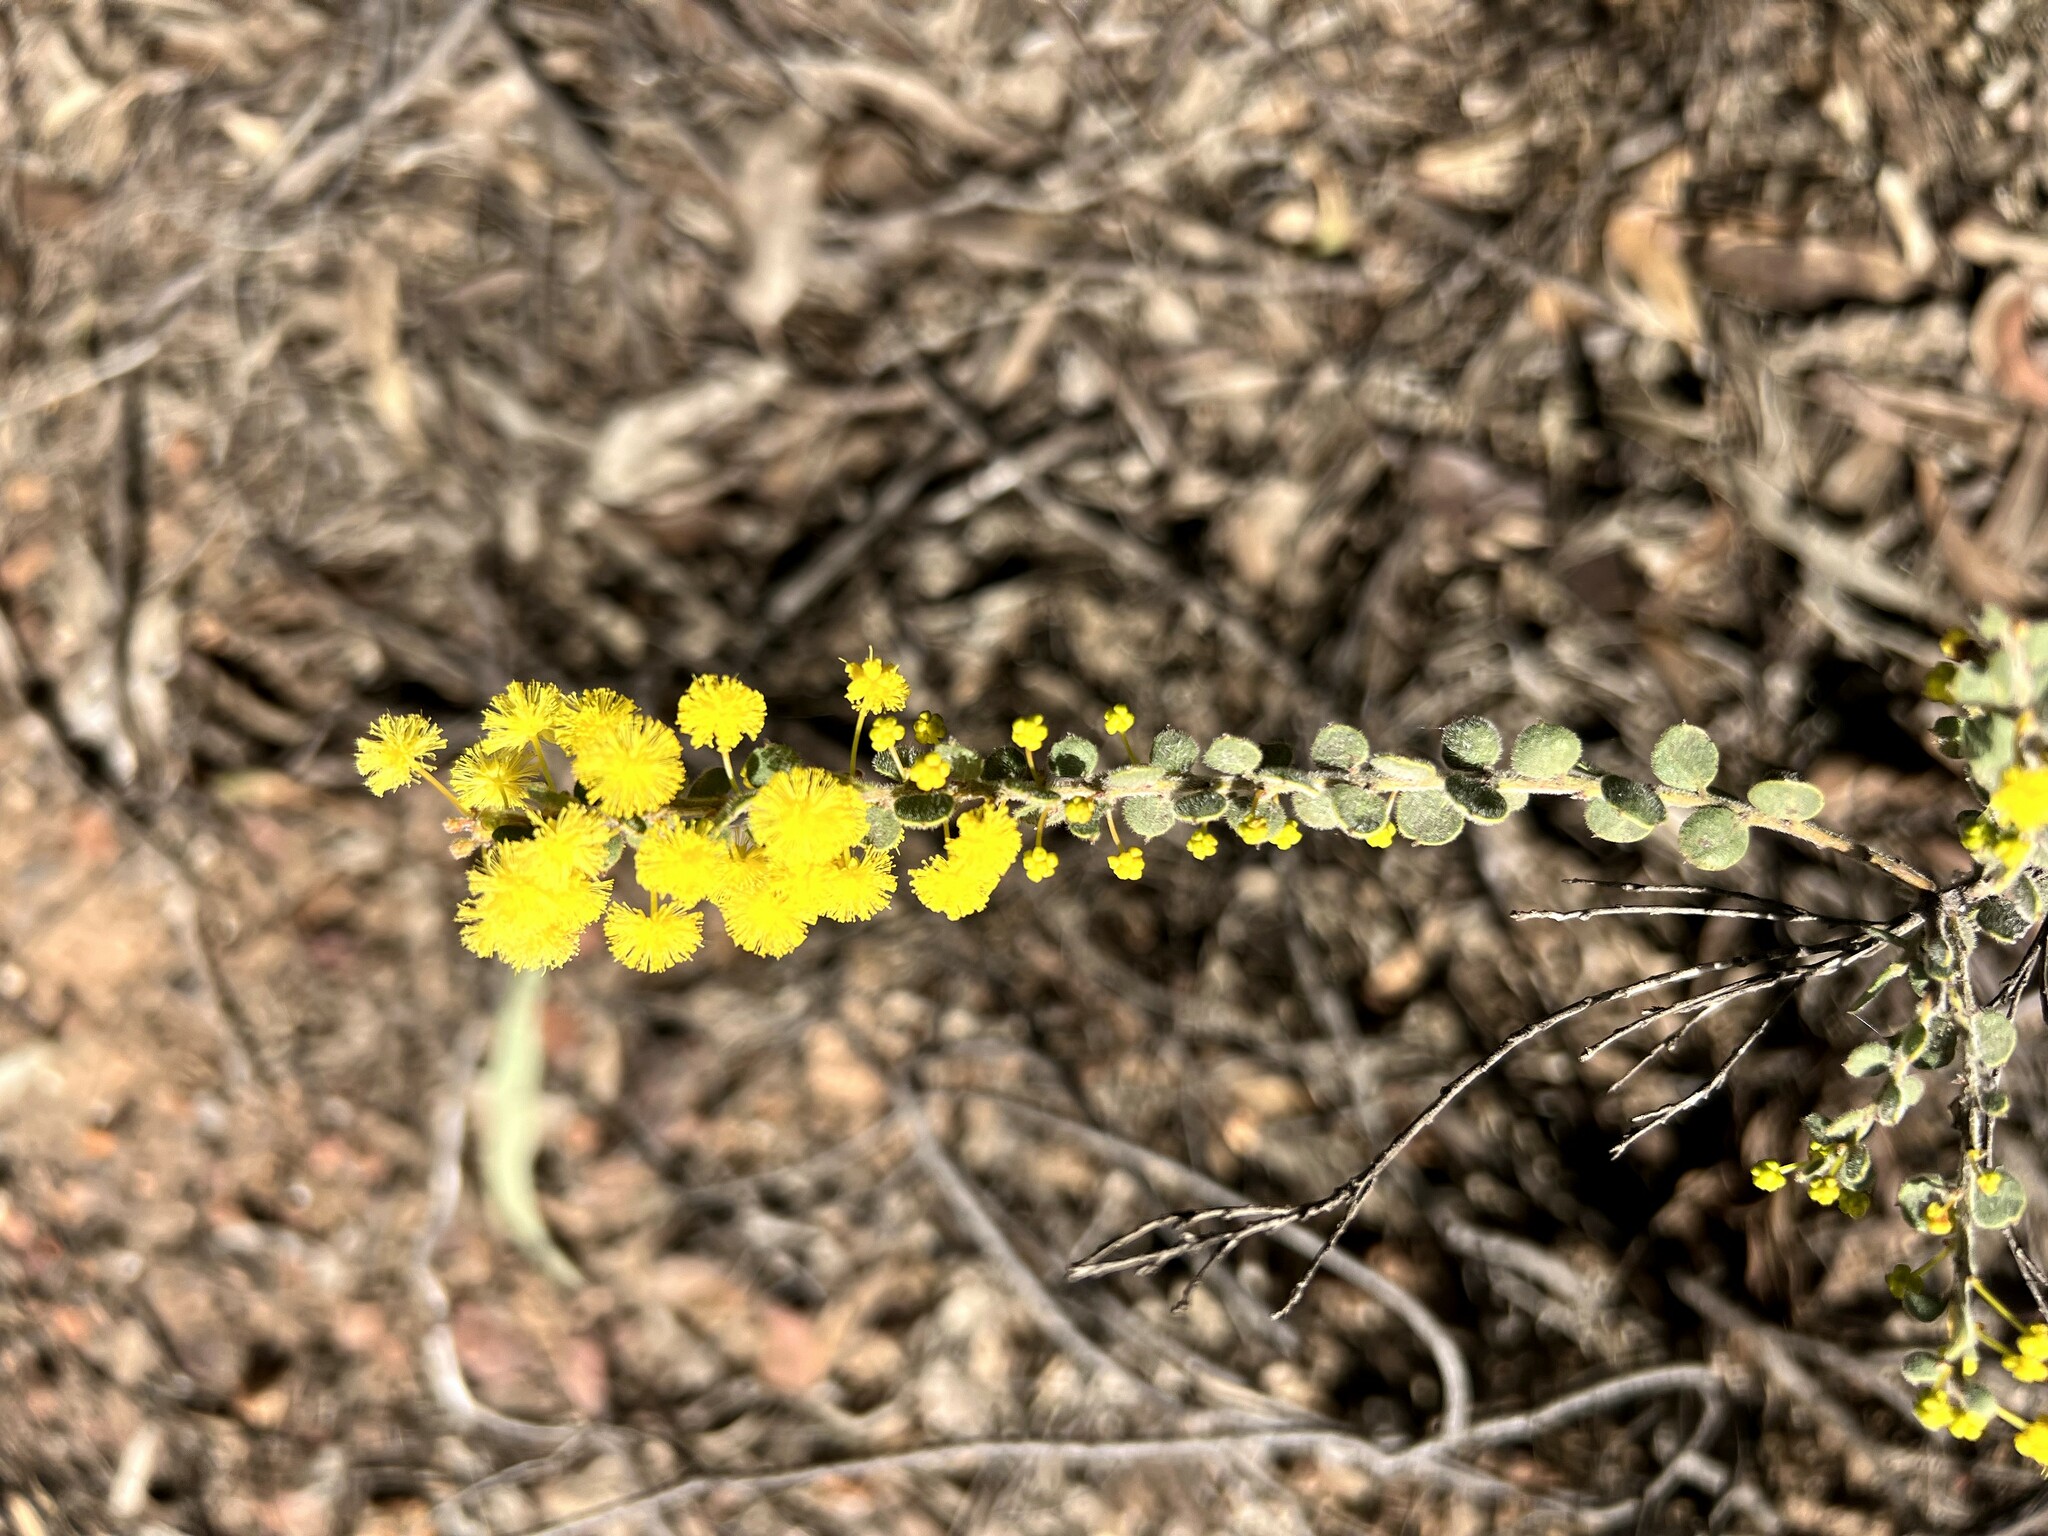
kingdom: Plantae
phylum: Tracheophyta
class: Magnoliopsida
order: Fabales
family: Fabaceae
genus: Acacia
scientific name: Acacia acinacea
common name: Gold-dust acacia
